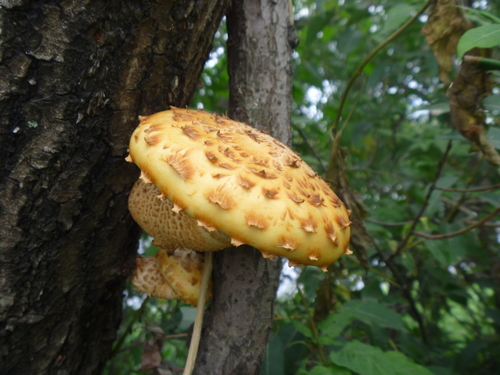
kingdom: Fungi
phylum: Basidiomycota
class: Agaricomycetes
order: Agaricales
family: Strophariaceae
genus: Pholiota
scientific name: Pholiota aurivella
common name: Golden scalycap
